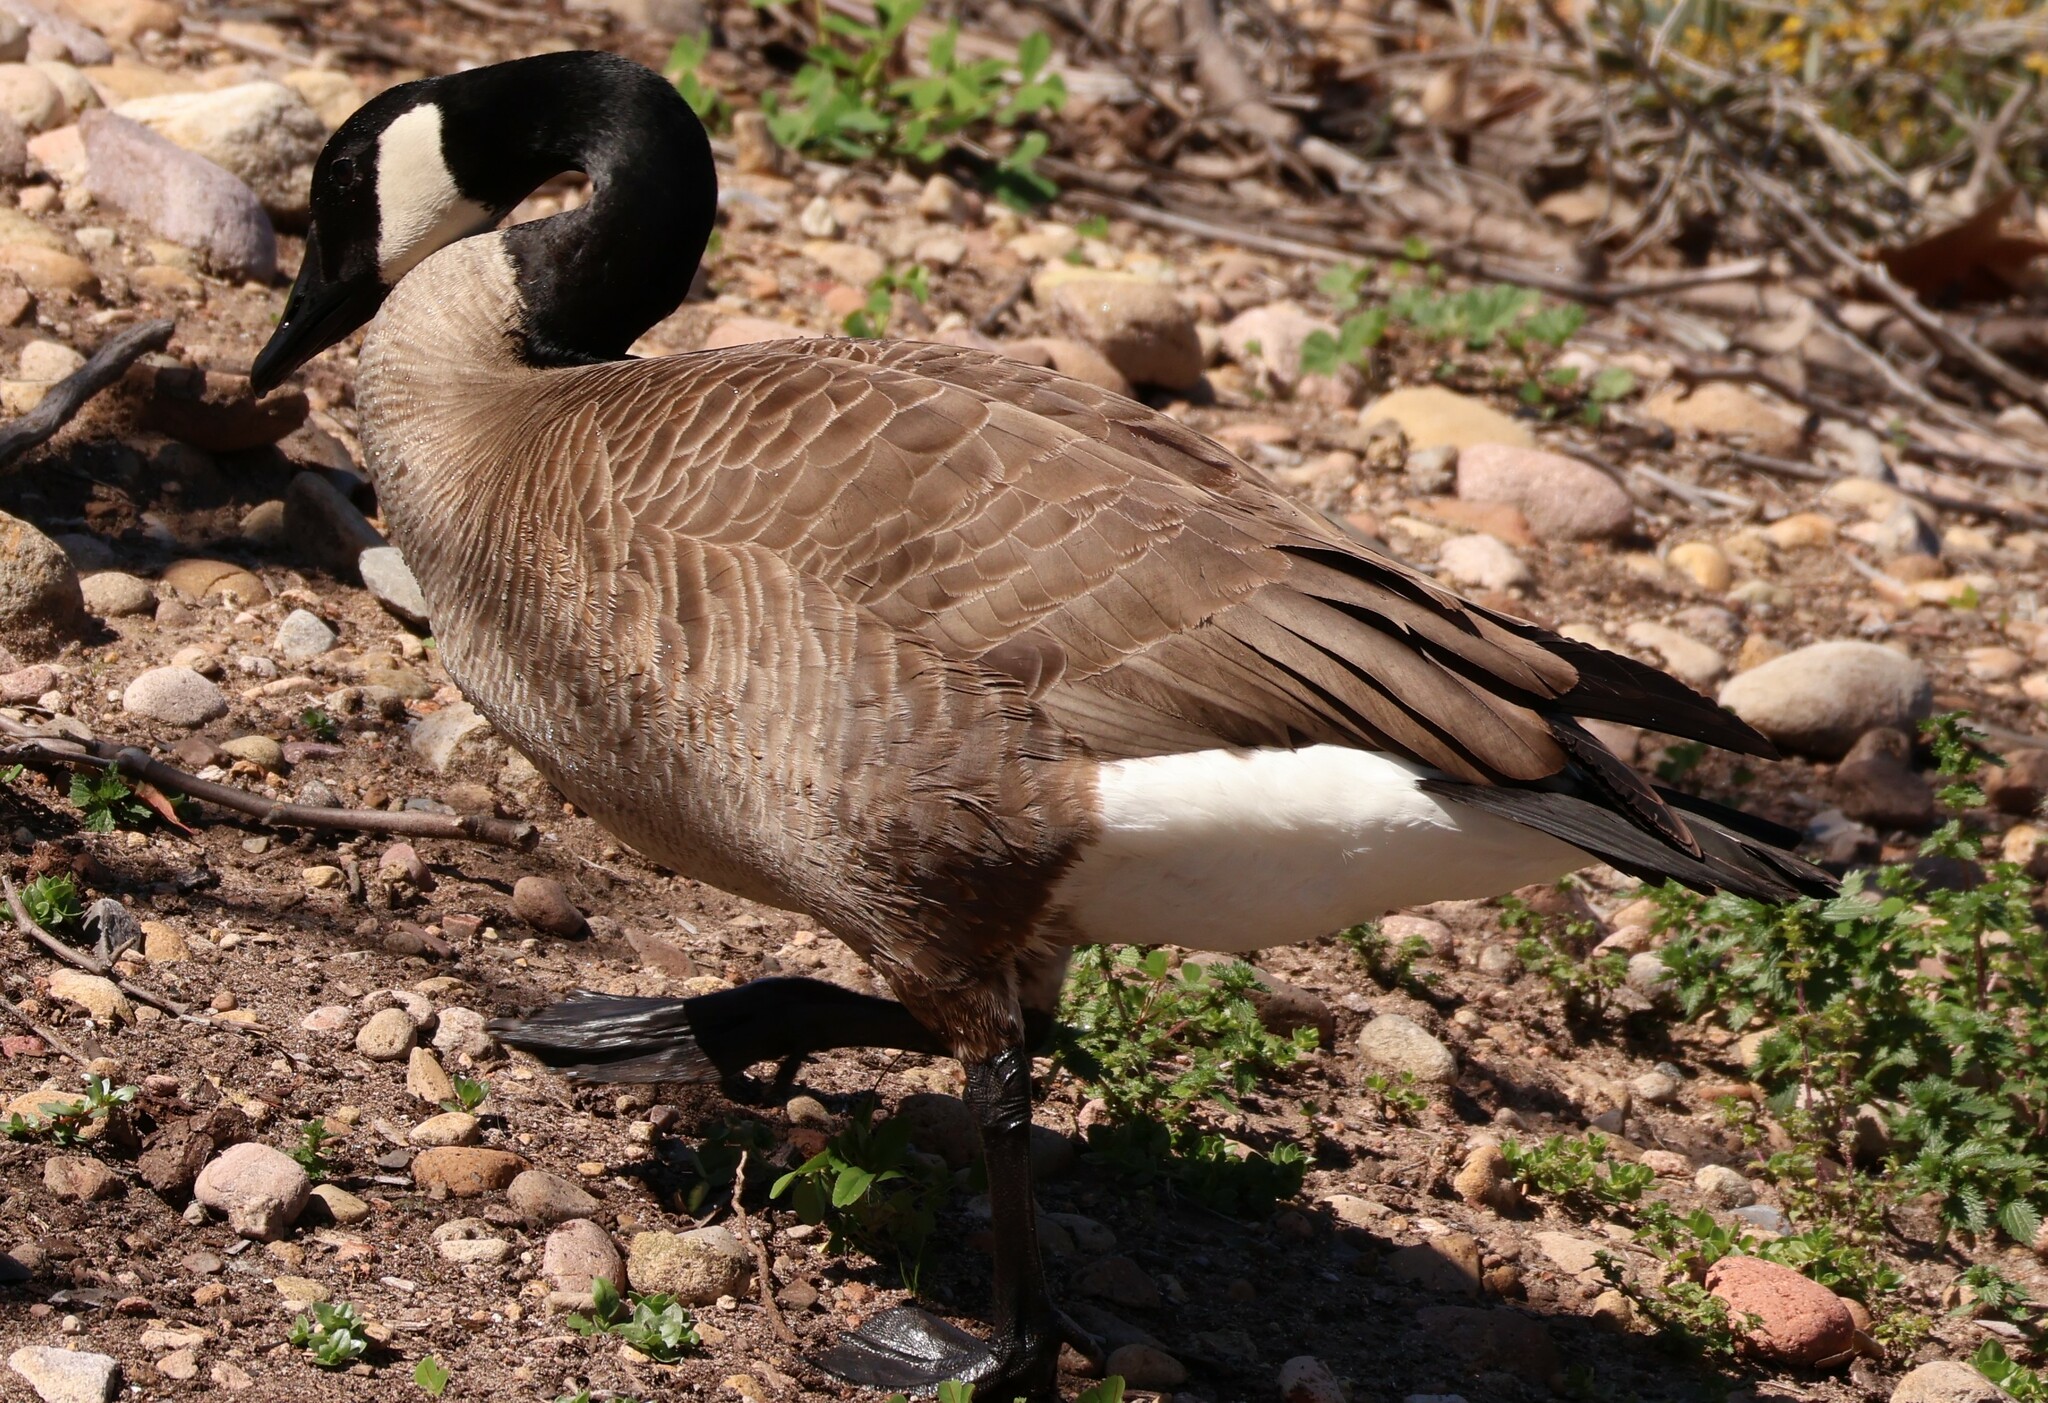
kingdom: Animalia
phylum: Chordata
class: Aves
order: Anseriformes
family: Anatidae
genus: Branta
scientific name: Branta canadensis
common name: Canada goose
